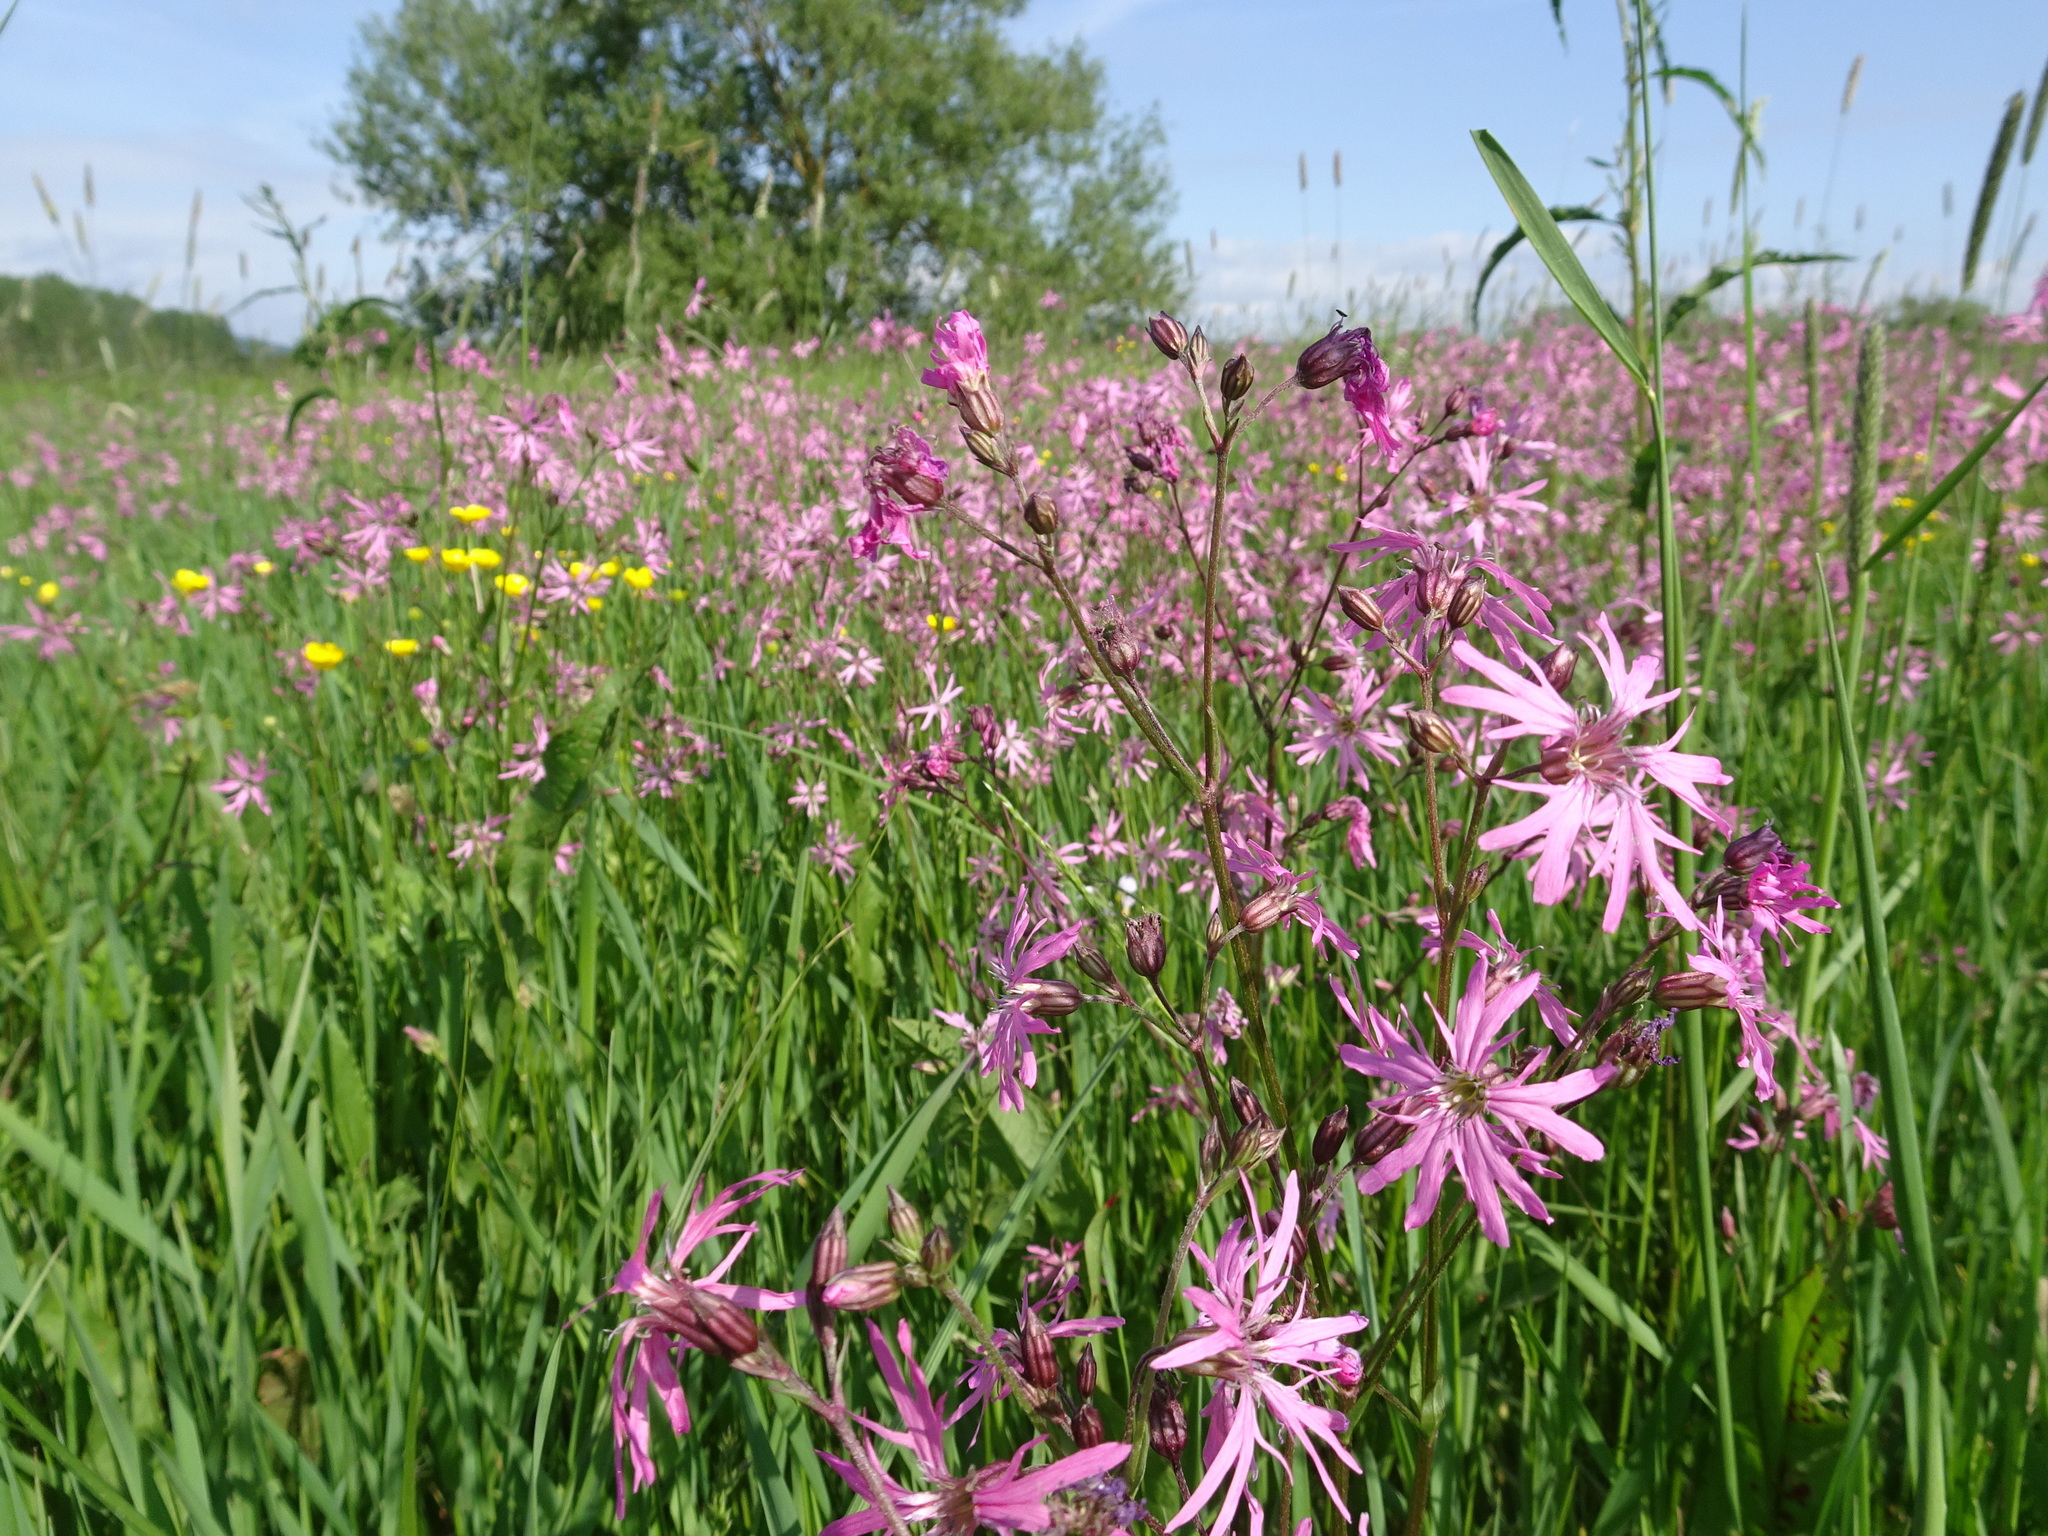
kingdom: Plantae
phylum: Tracheophyta
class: Magnoliopsida
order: Caryophyllales
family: Caryophyllaceae
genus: Silene
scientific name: Silene flos-cuculi
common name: Ragged-robin
